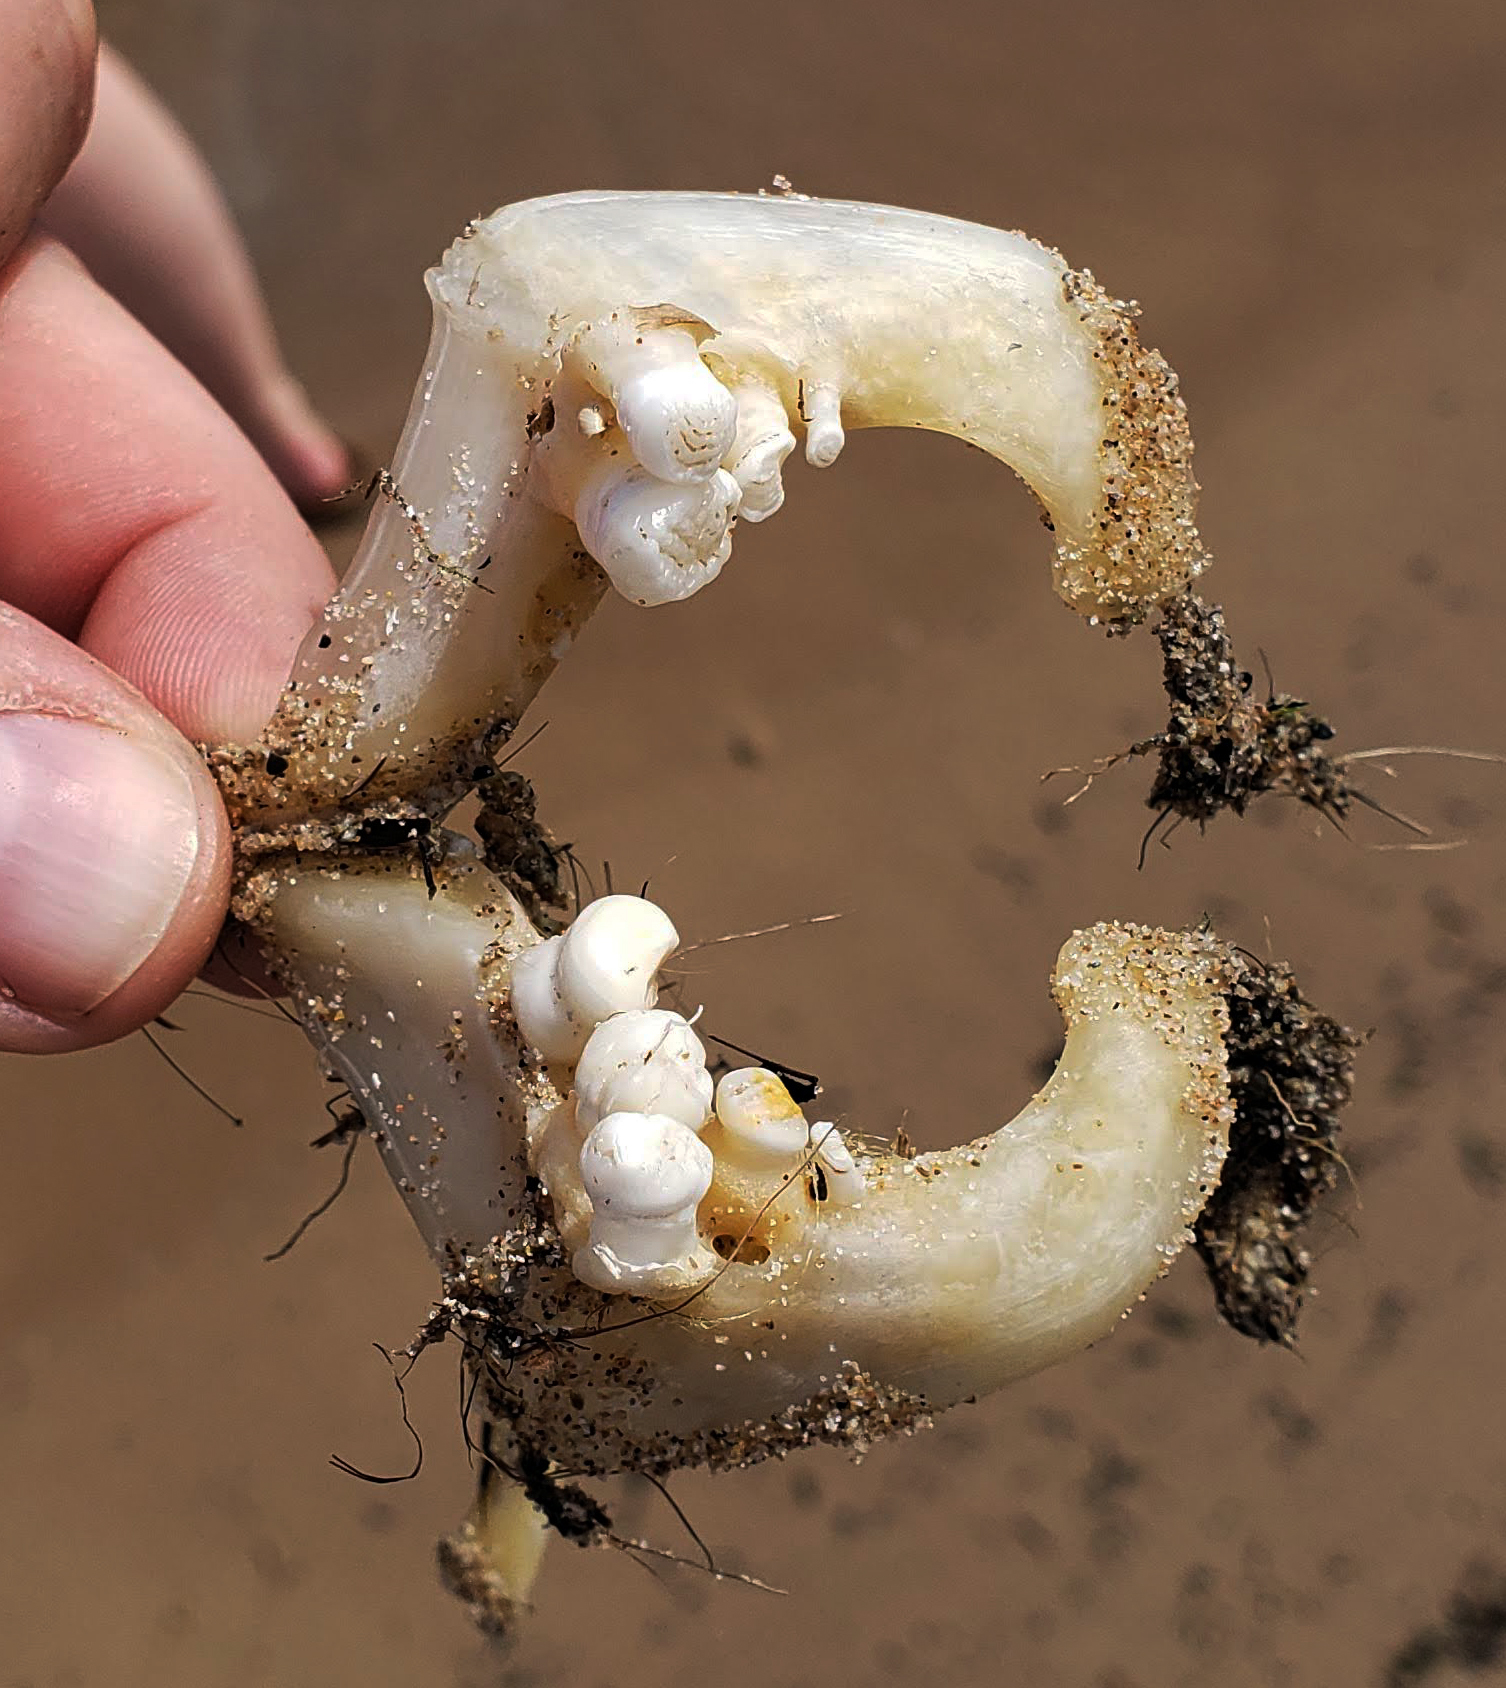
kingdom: Animalia
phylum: Chordata
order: Cypriniformes
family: Cyprinidae
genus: Cyprinus
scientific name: Cyprinus carpio
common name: Common carp
